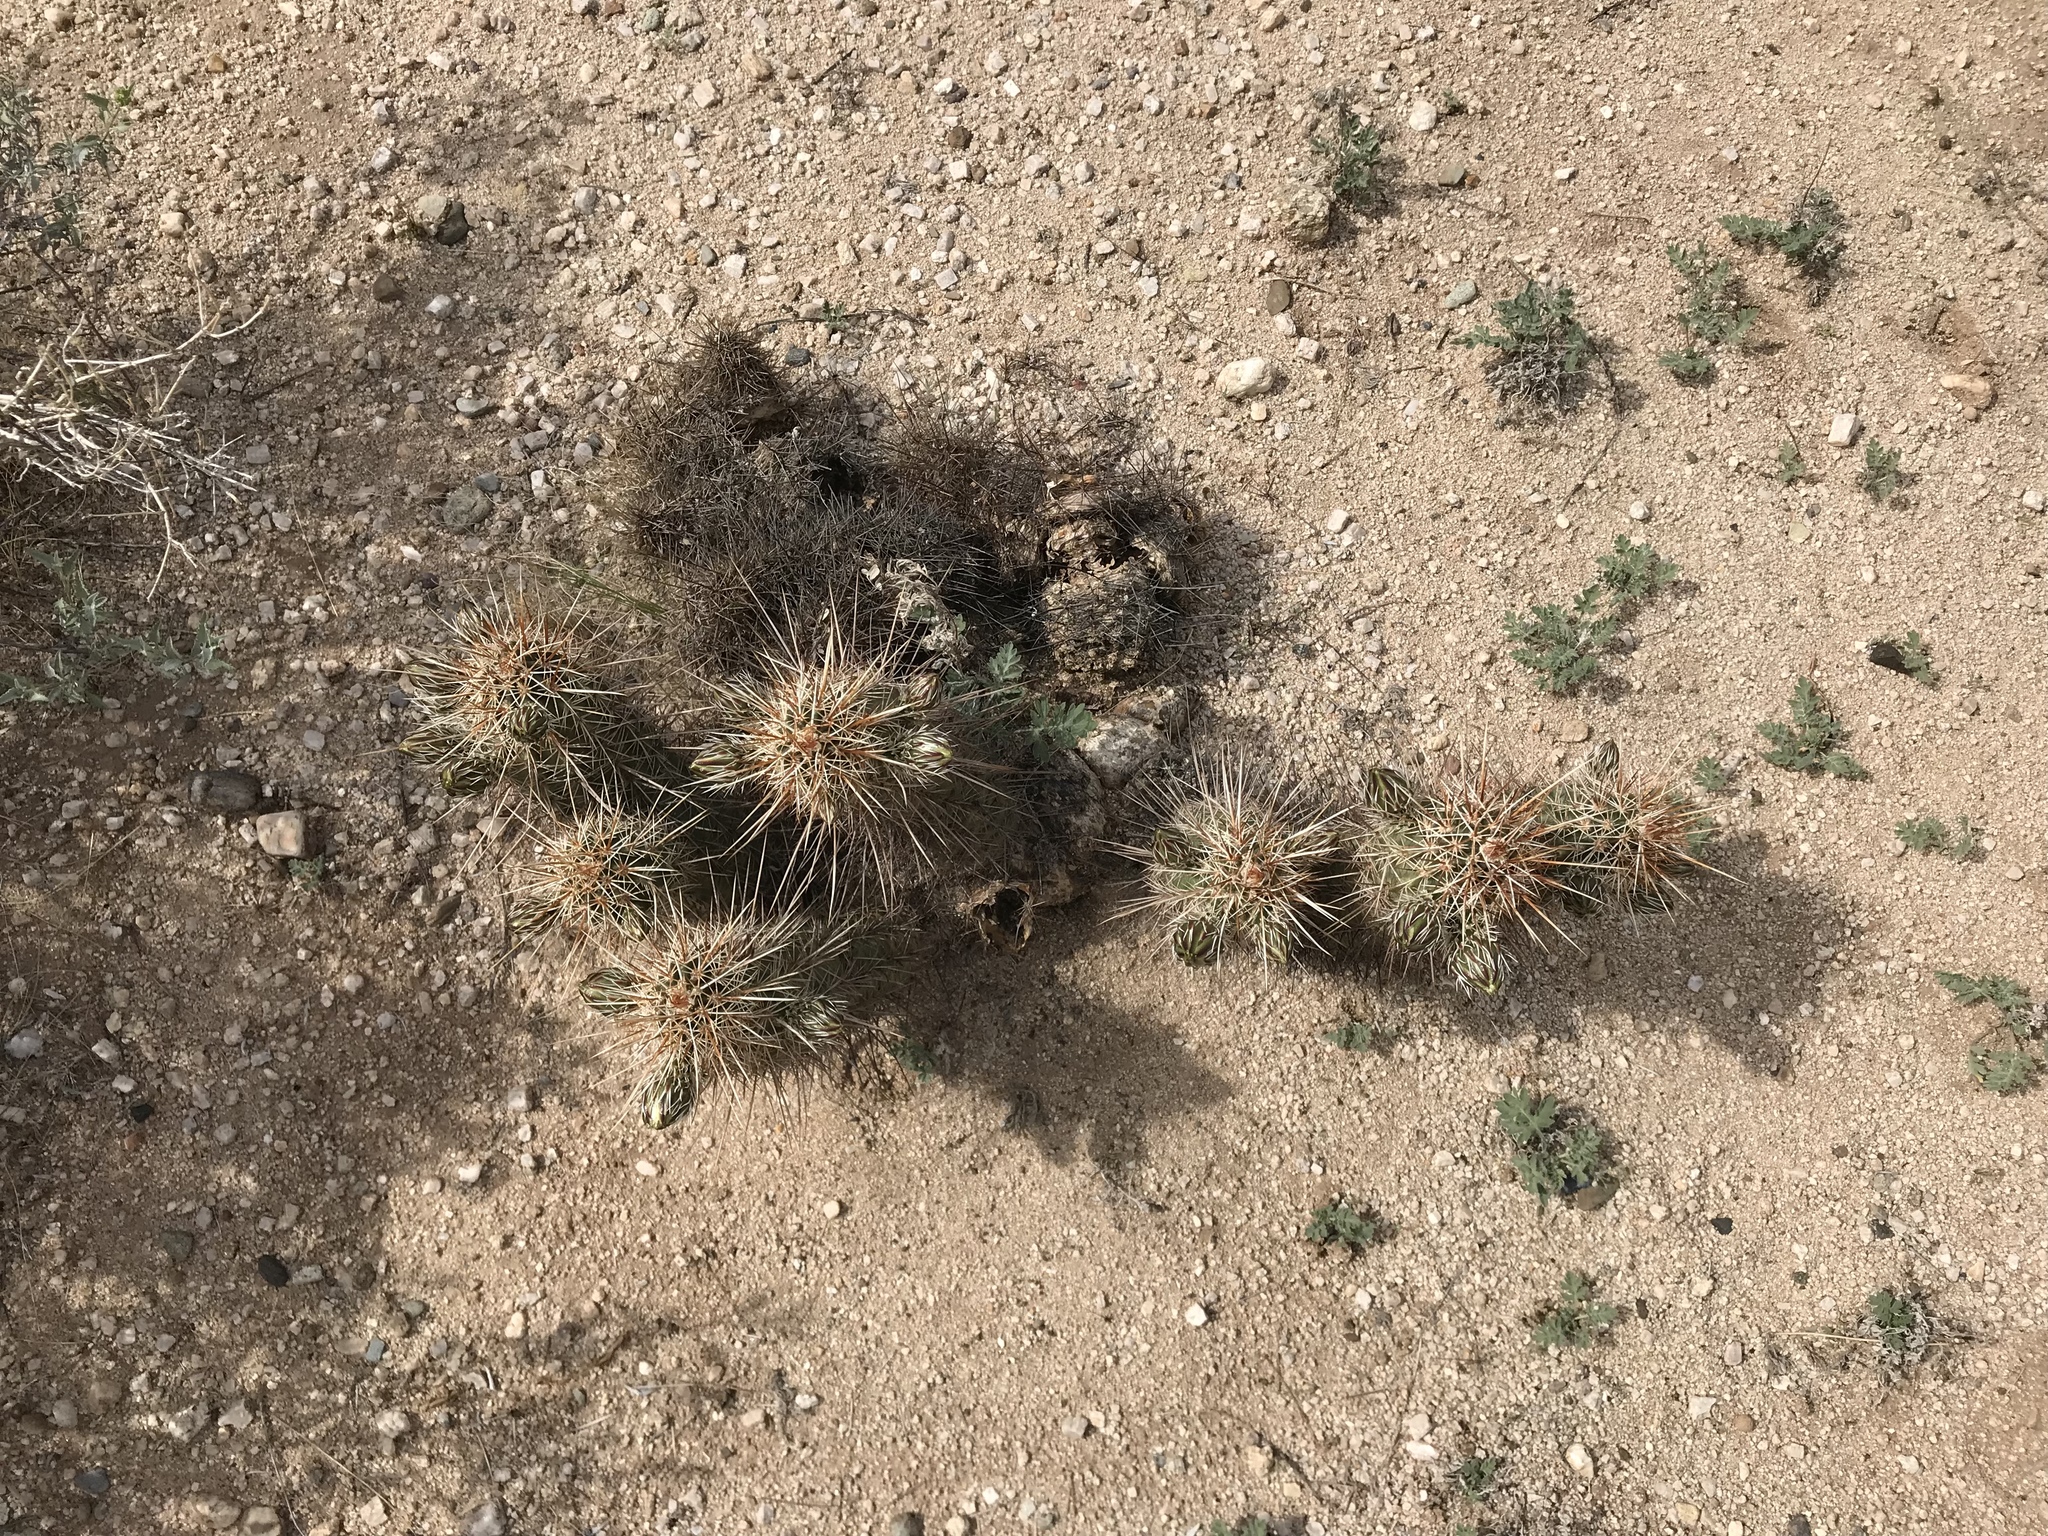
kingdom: Plantae
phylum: Tracheophyta
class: Magnoliopsida
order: Caryophyllales
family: Cactaceae
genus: Echinocereus
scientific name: Echinocereus engelmannii
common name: Engelmann's hedgehog cactus
